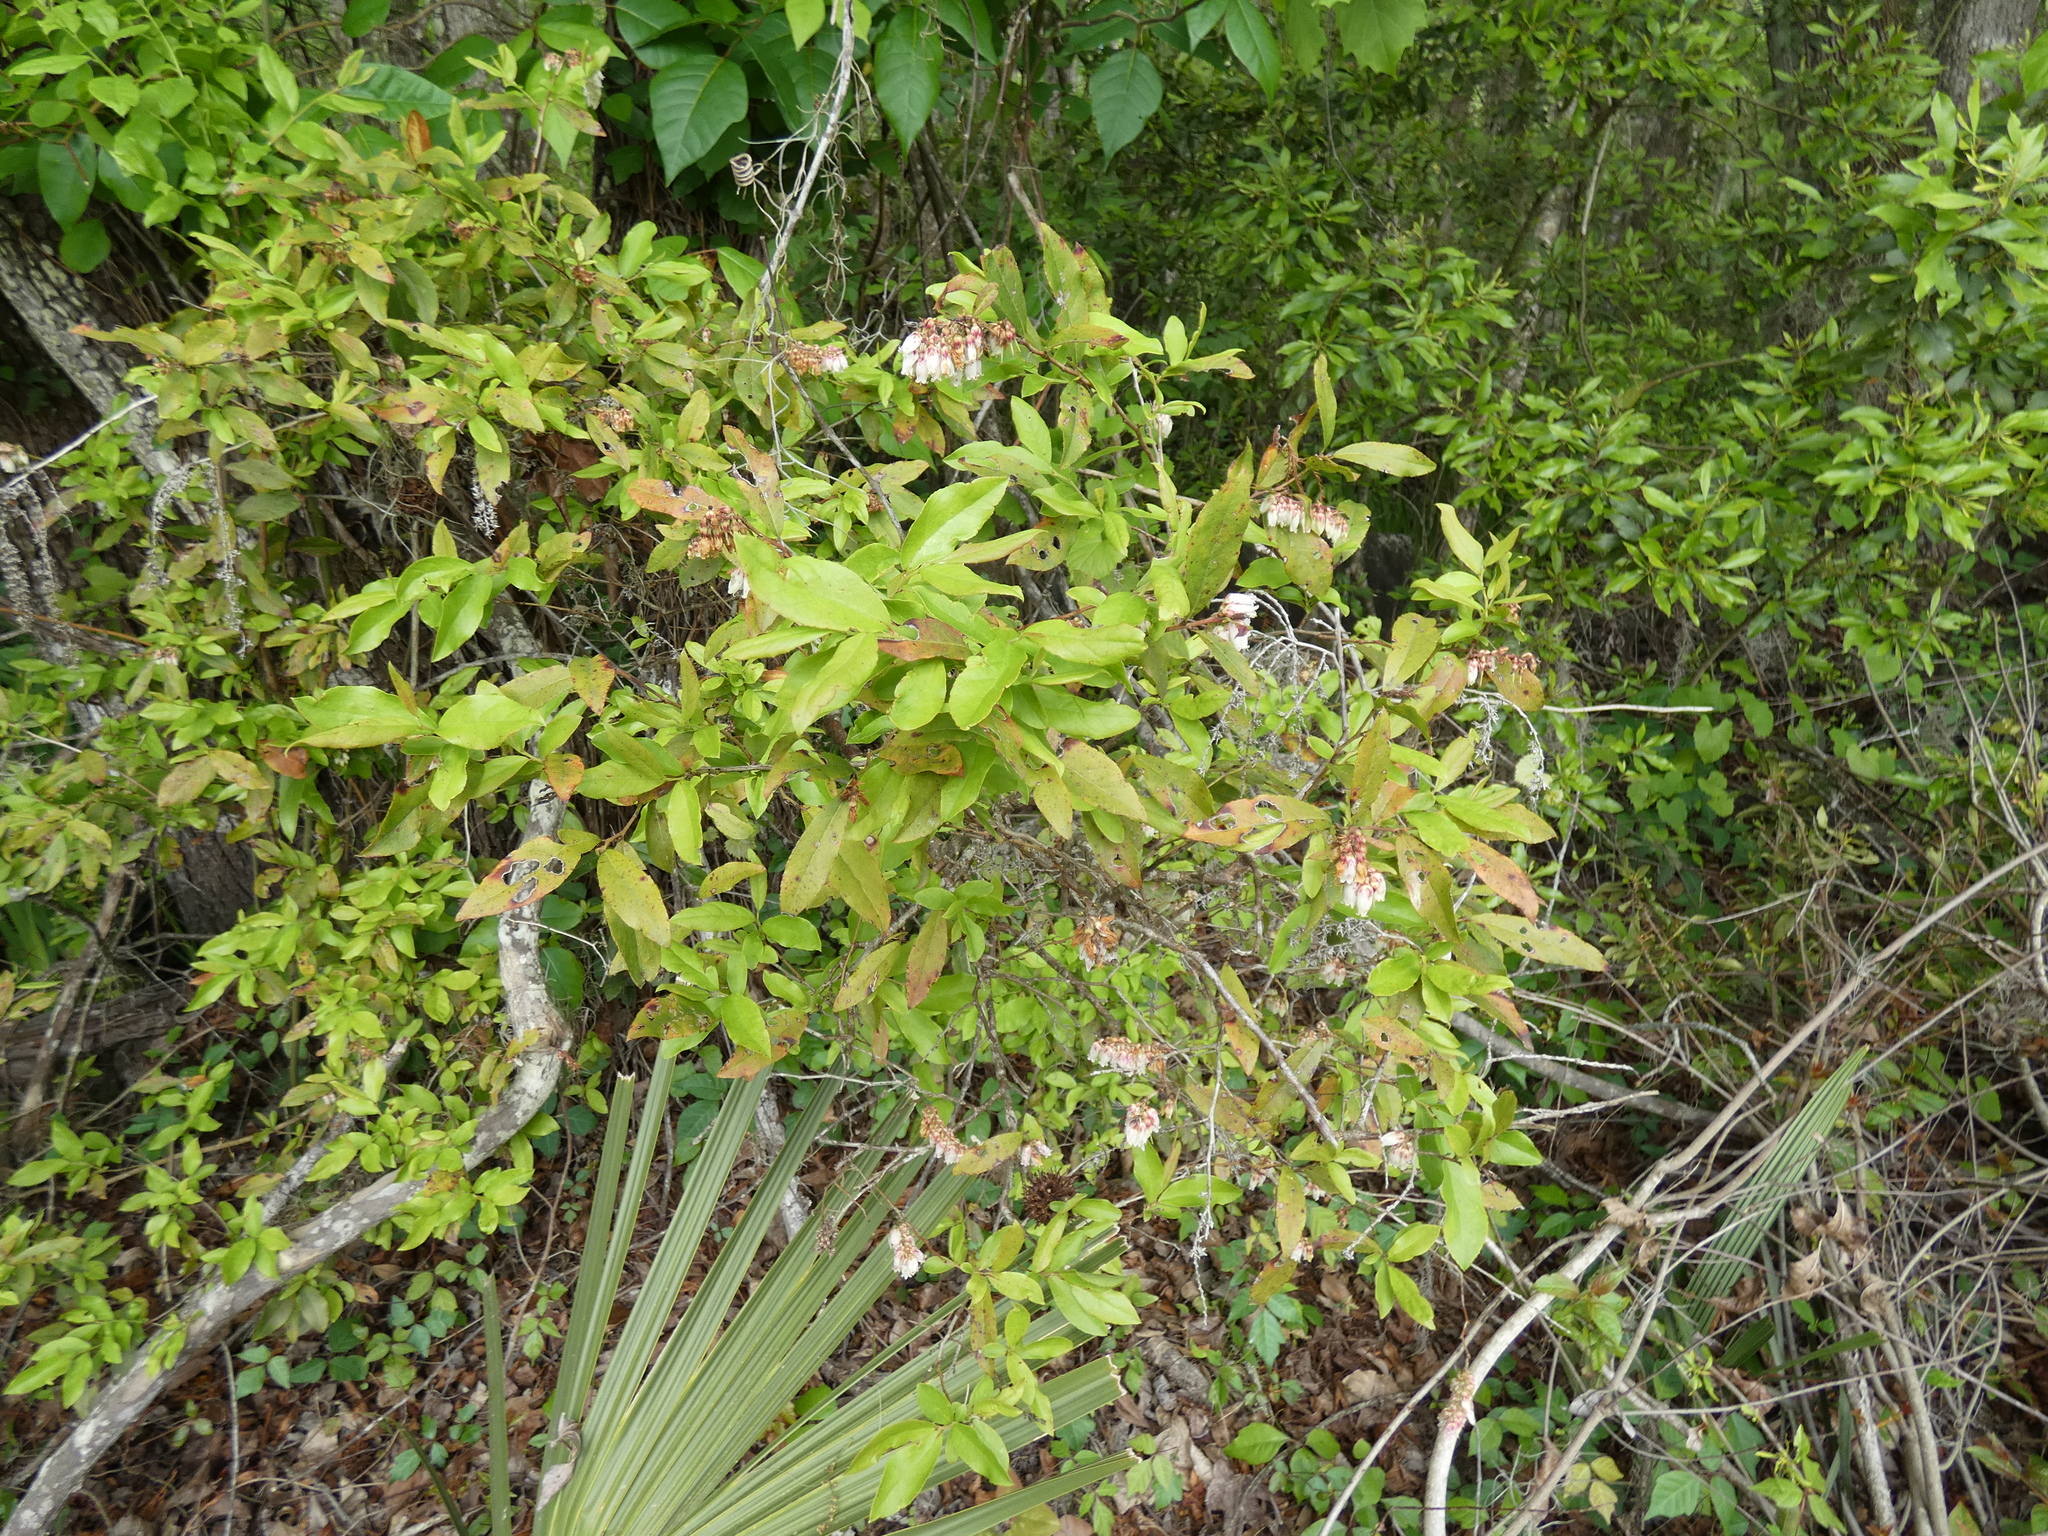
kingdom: Plantae
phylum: Tracheophyta
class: Magnoliopsida
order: Ericales
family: Ericaceae
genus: Lyonia
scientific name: Lyonia lucida
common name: Fetterbush
